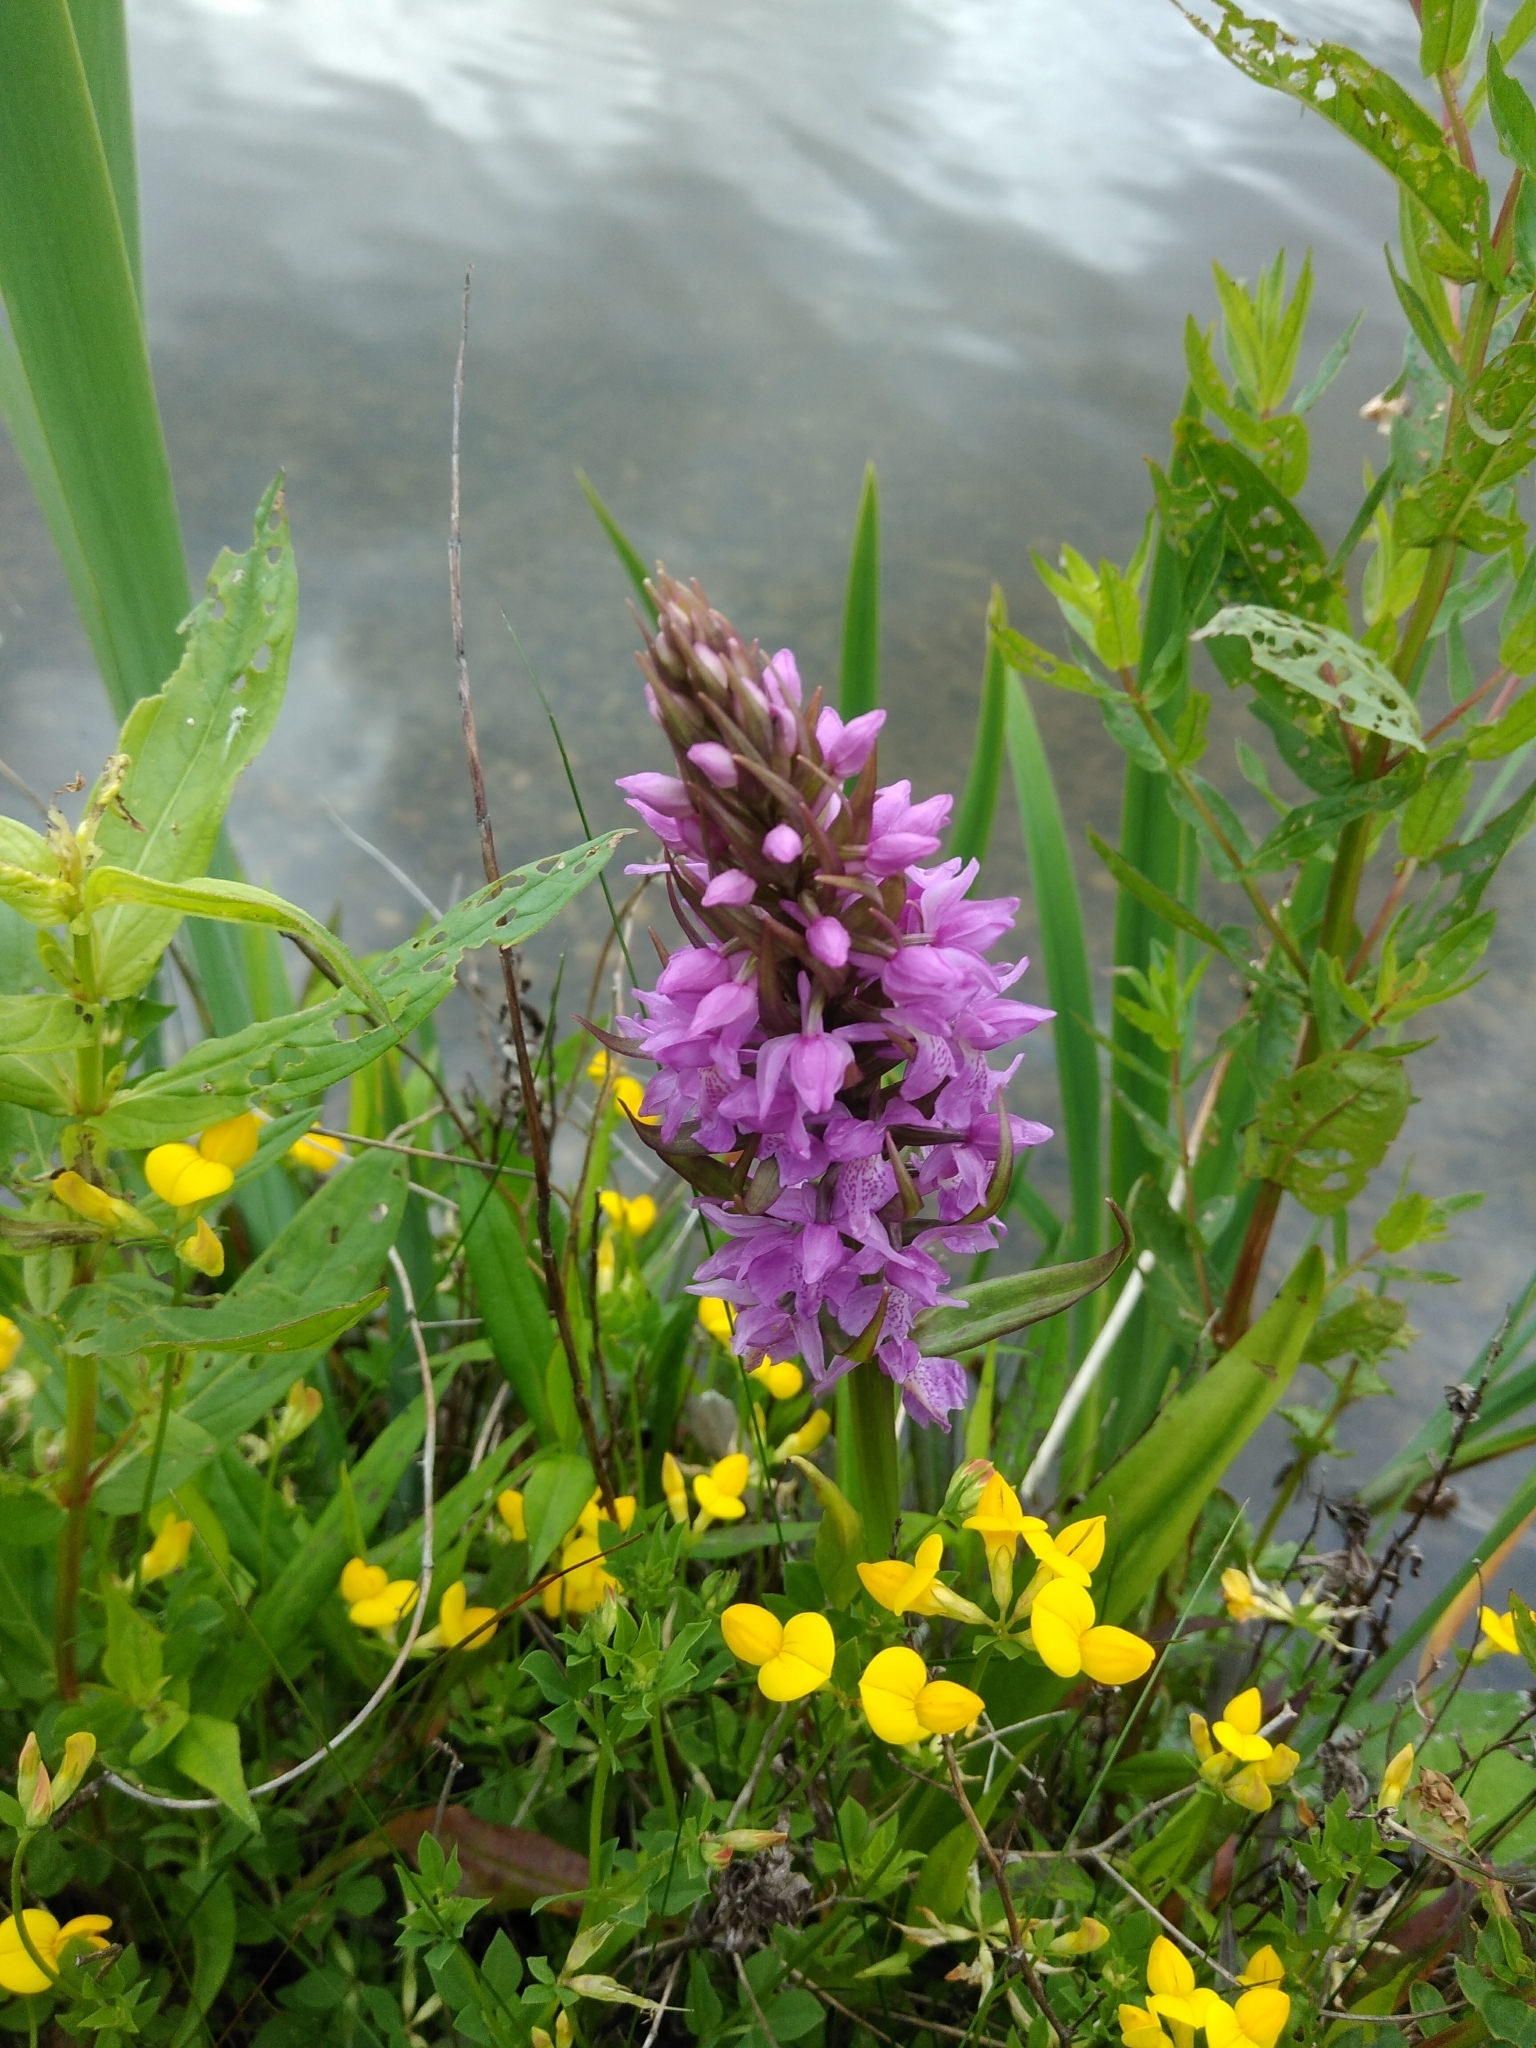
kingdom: Plantae
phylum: Tracheophyta
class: Liliopsida
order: Asparagales
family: Orchidaceae
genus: Dactylorhiza
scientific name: Dactylorhiza majalis
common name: Marsh orchid
